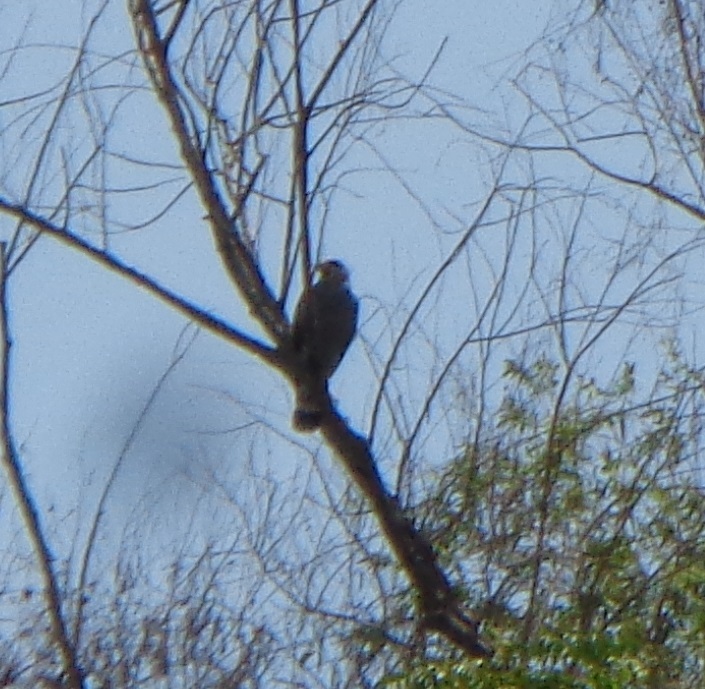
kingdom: Animalia
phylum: Chordata
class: Aves
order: Accipitriformes
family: Accipitridae
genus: Buteo
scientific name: Buteo nitidus
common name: Grey-lined hawk
